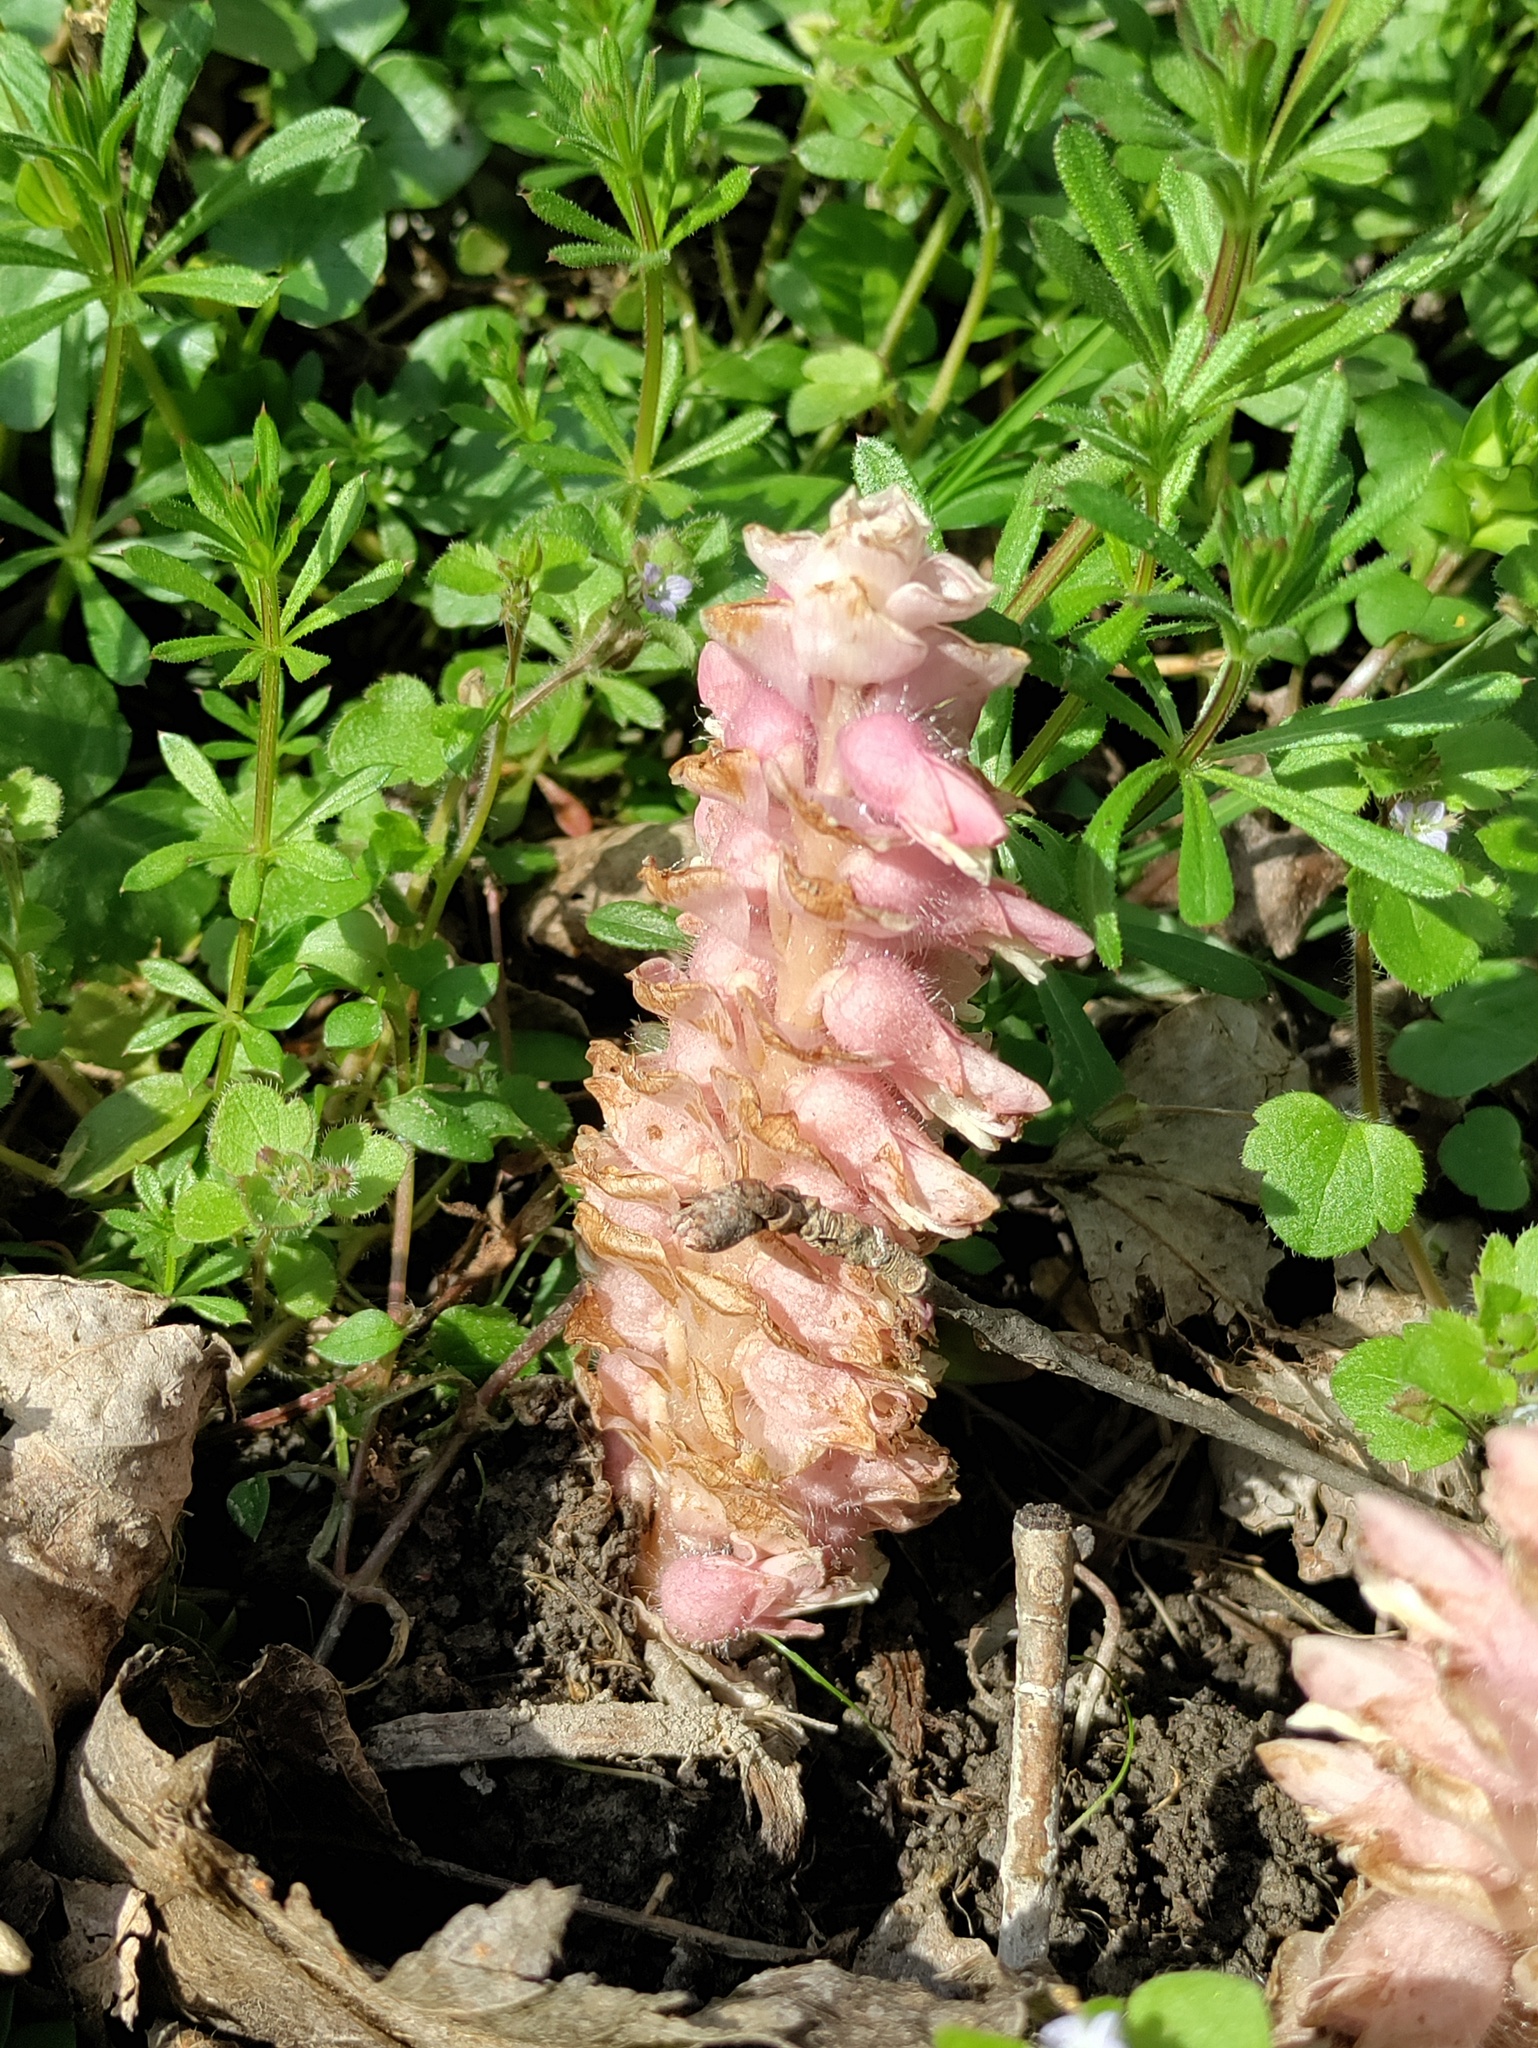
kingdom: Plantae
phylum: Tracheophyta
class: Magnoliopsida
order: Lamiales
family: Orobanchaceae
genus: Lathraea
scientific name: Lathraea squamaria
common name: Toothwort
